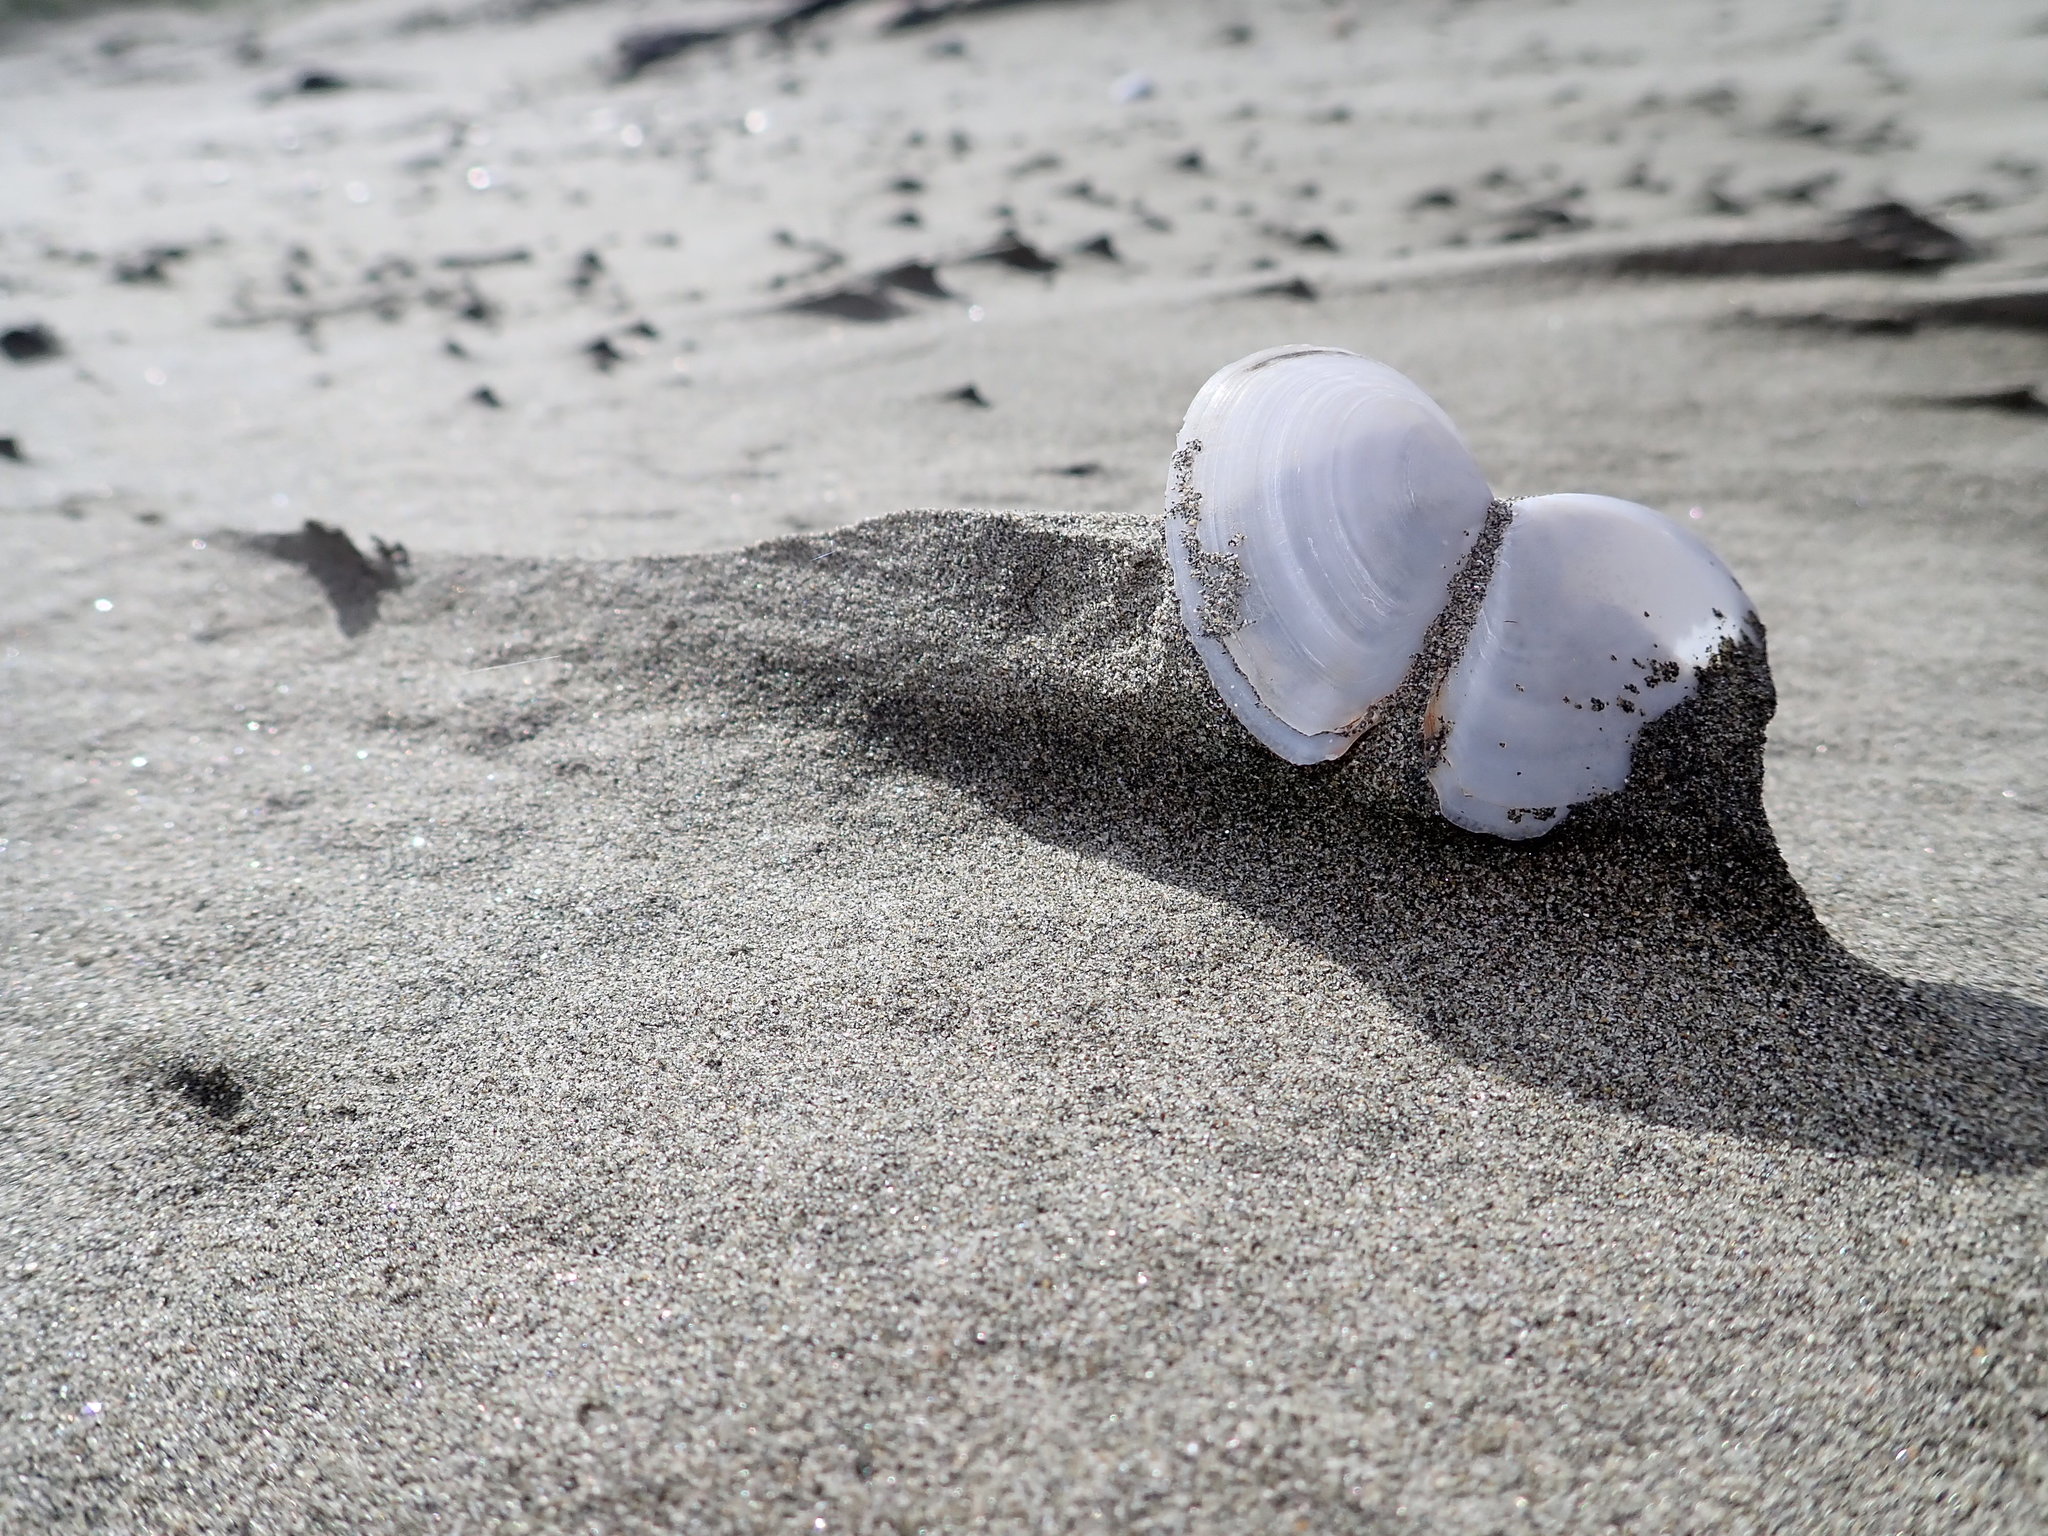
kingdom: Animalia
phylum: Mollusca
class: Bivalvia
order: Cardiida
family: Tellinidae
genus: Bartschicoma
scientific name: Bartschicoma gaimardi
